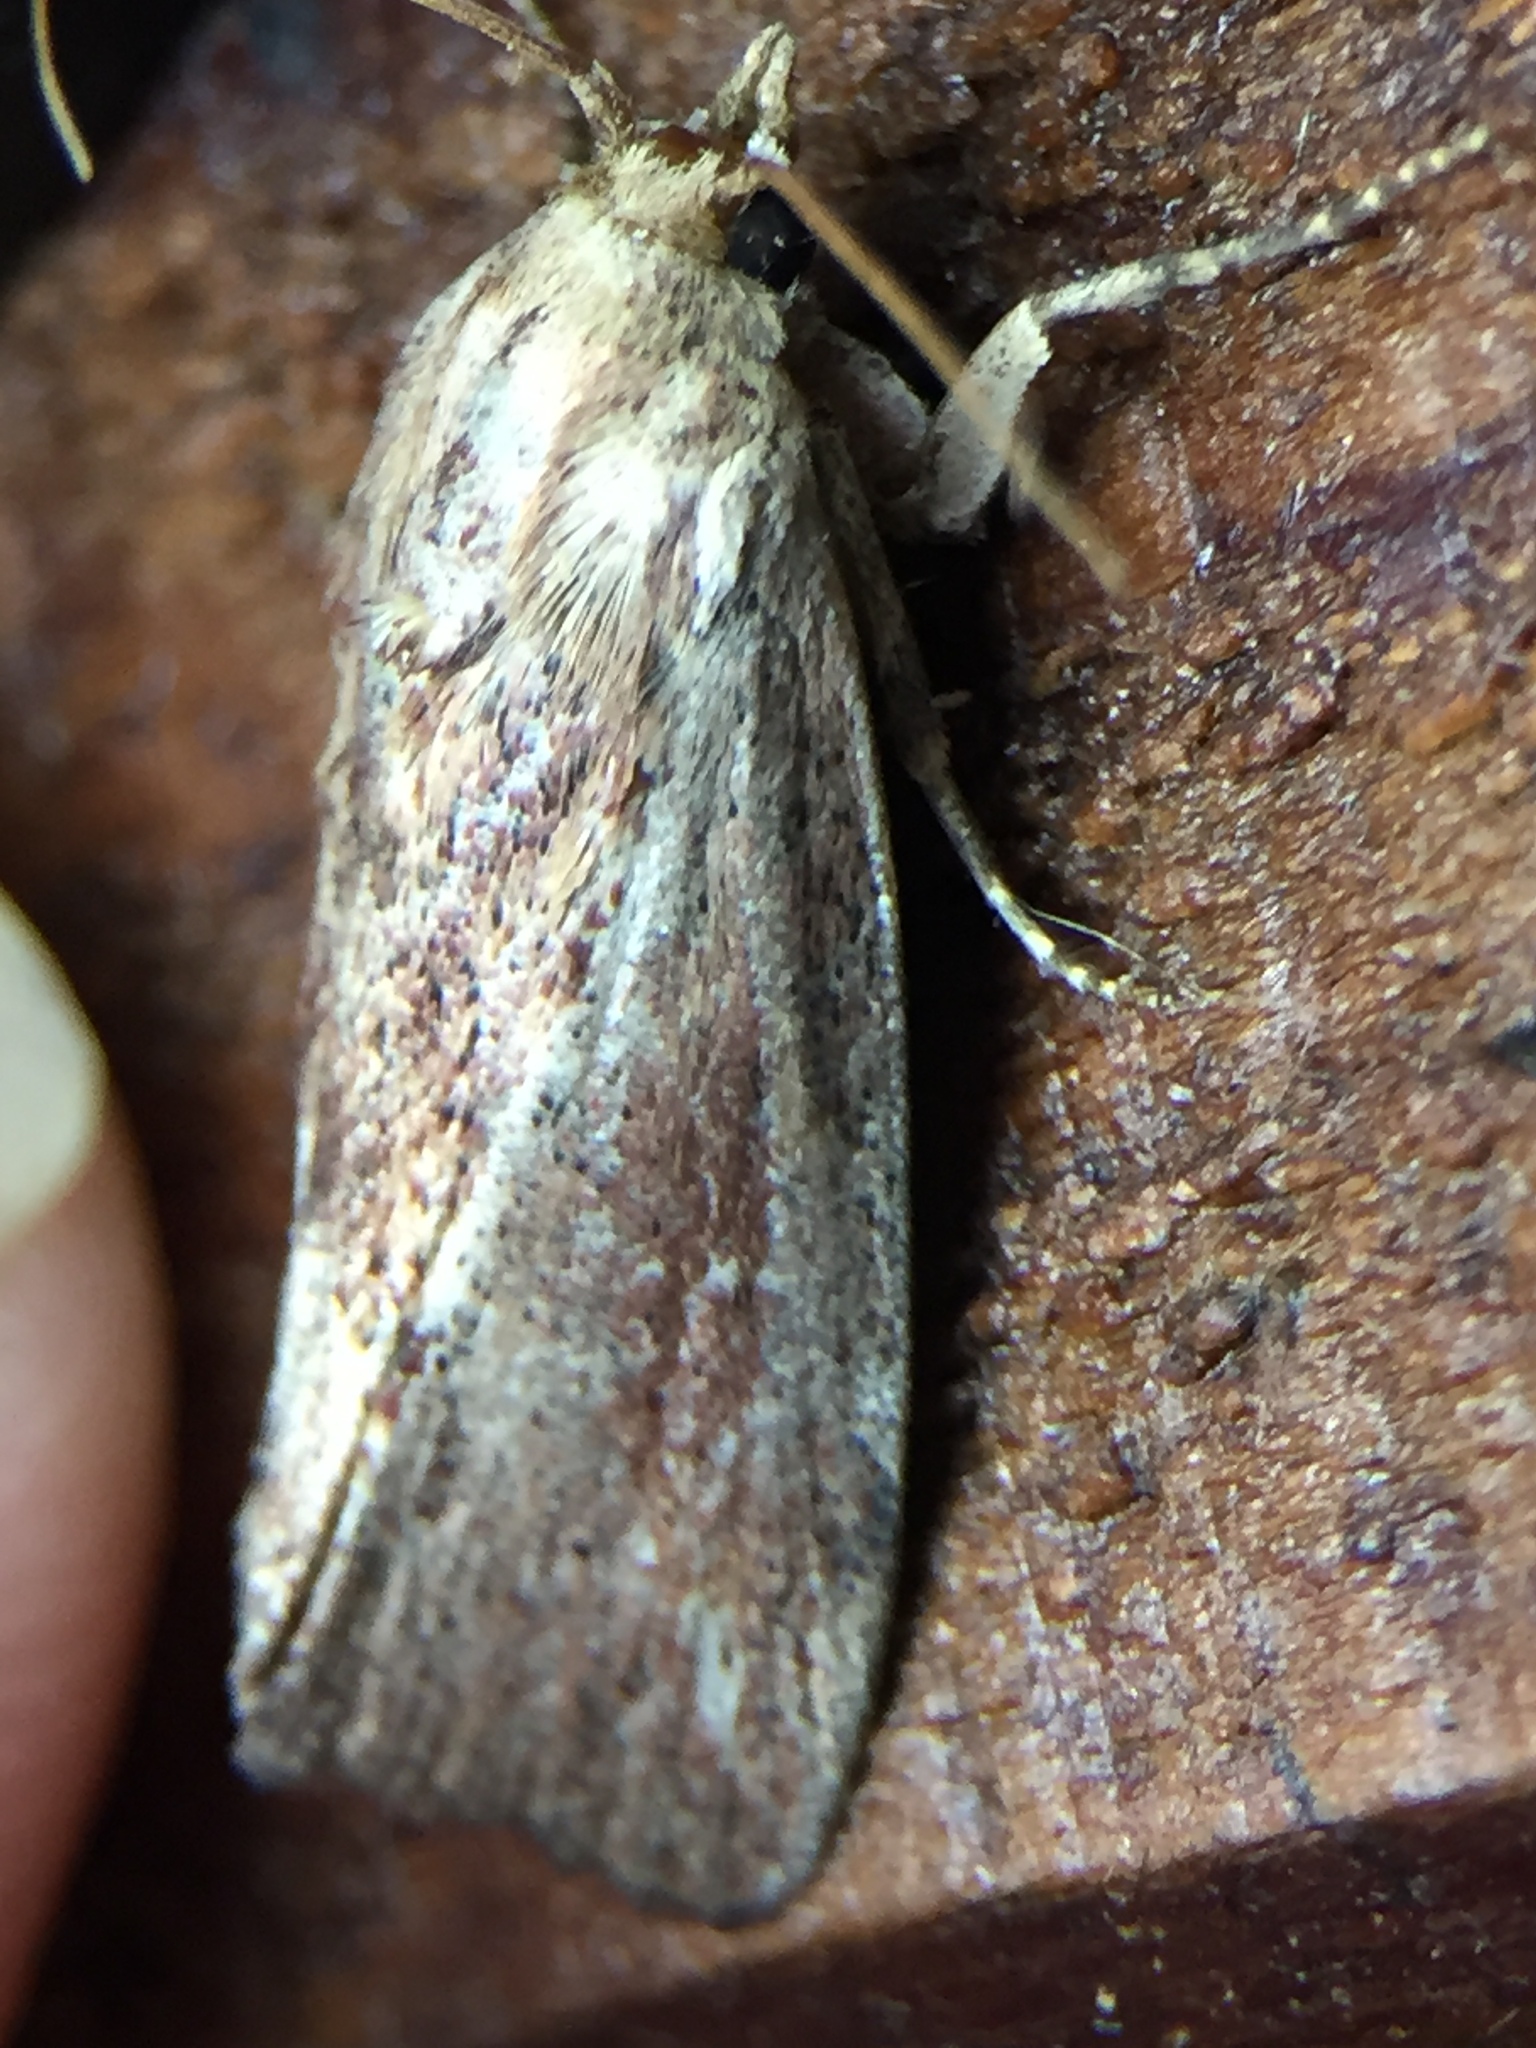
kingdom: Animalia
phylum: Arthropoda
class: Insecta
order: Lepidoptera
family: Pyralidae
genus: Galleria
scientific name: Galleria mellonella
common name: Greater wax moth
